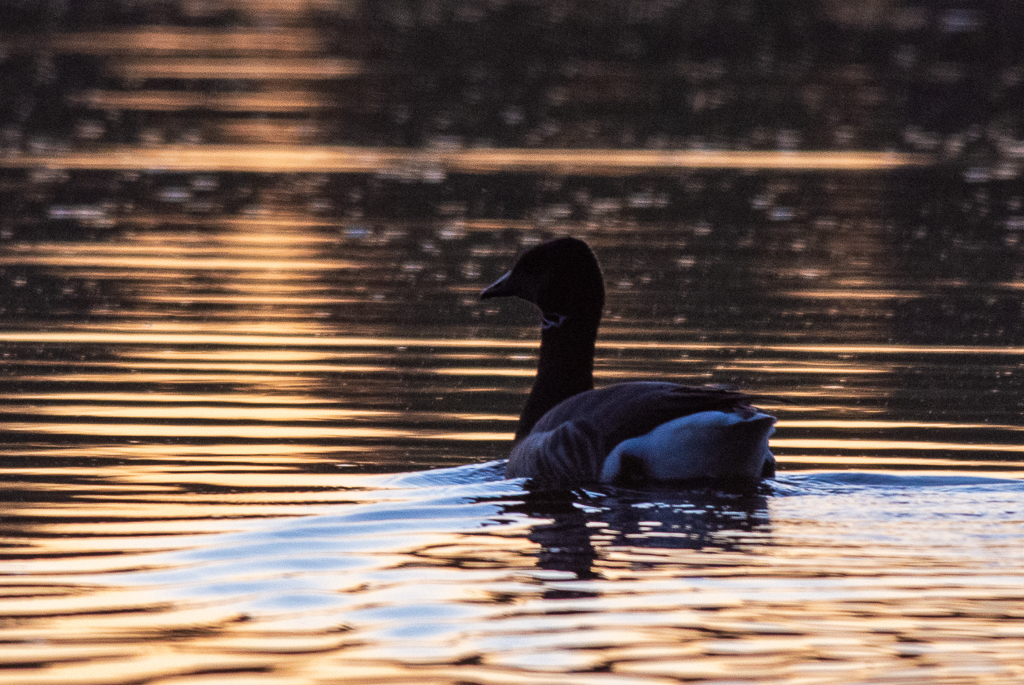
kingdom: Animalia
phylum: Chordata
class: Aves
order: Anseriformes
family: Anatidae
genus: Branta
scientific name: Branta bernicla
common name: Brant goose
